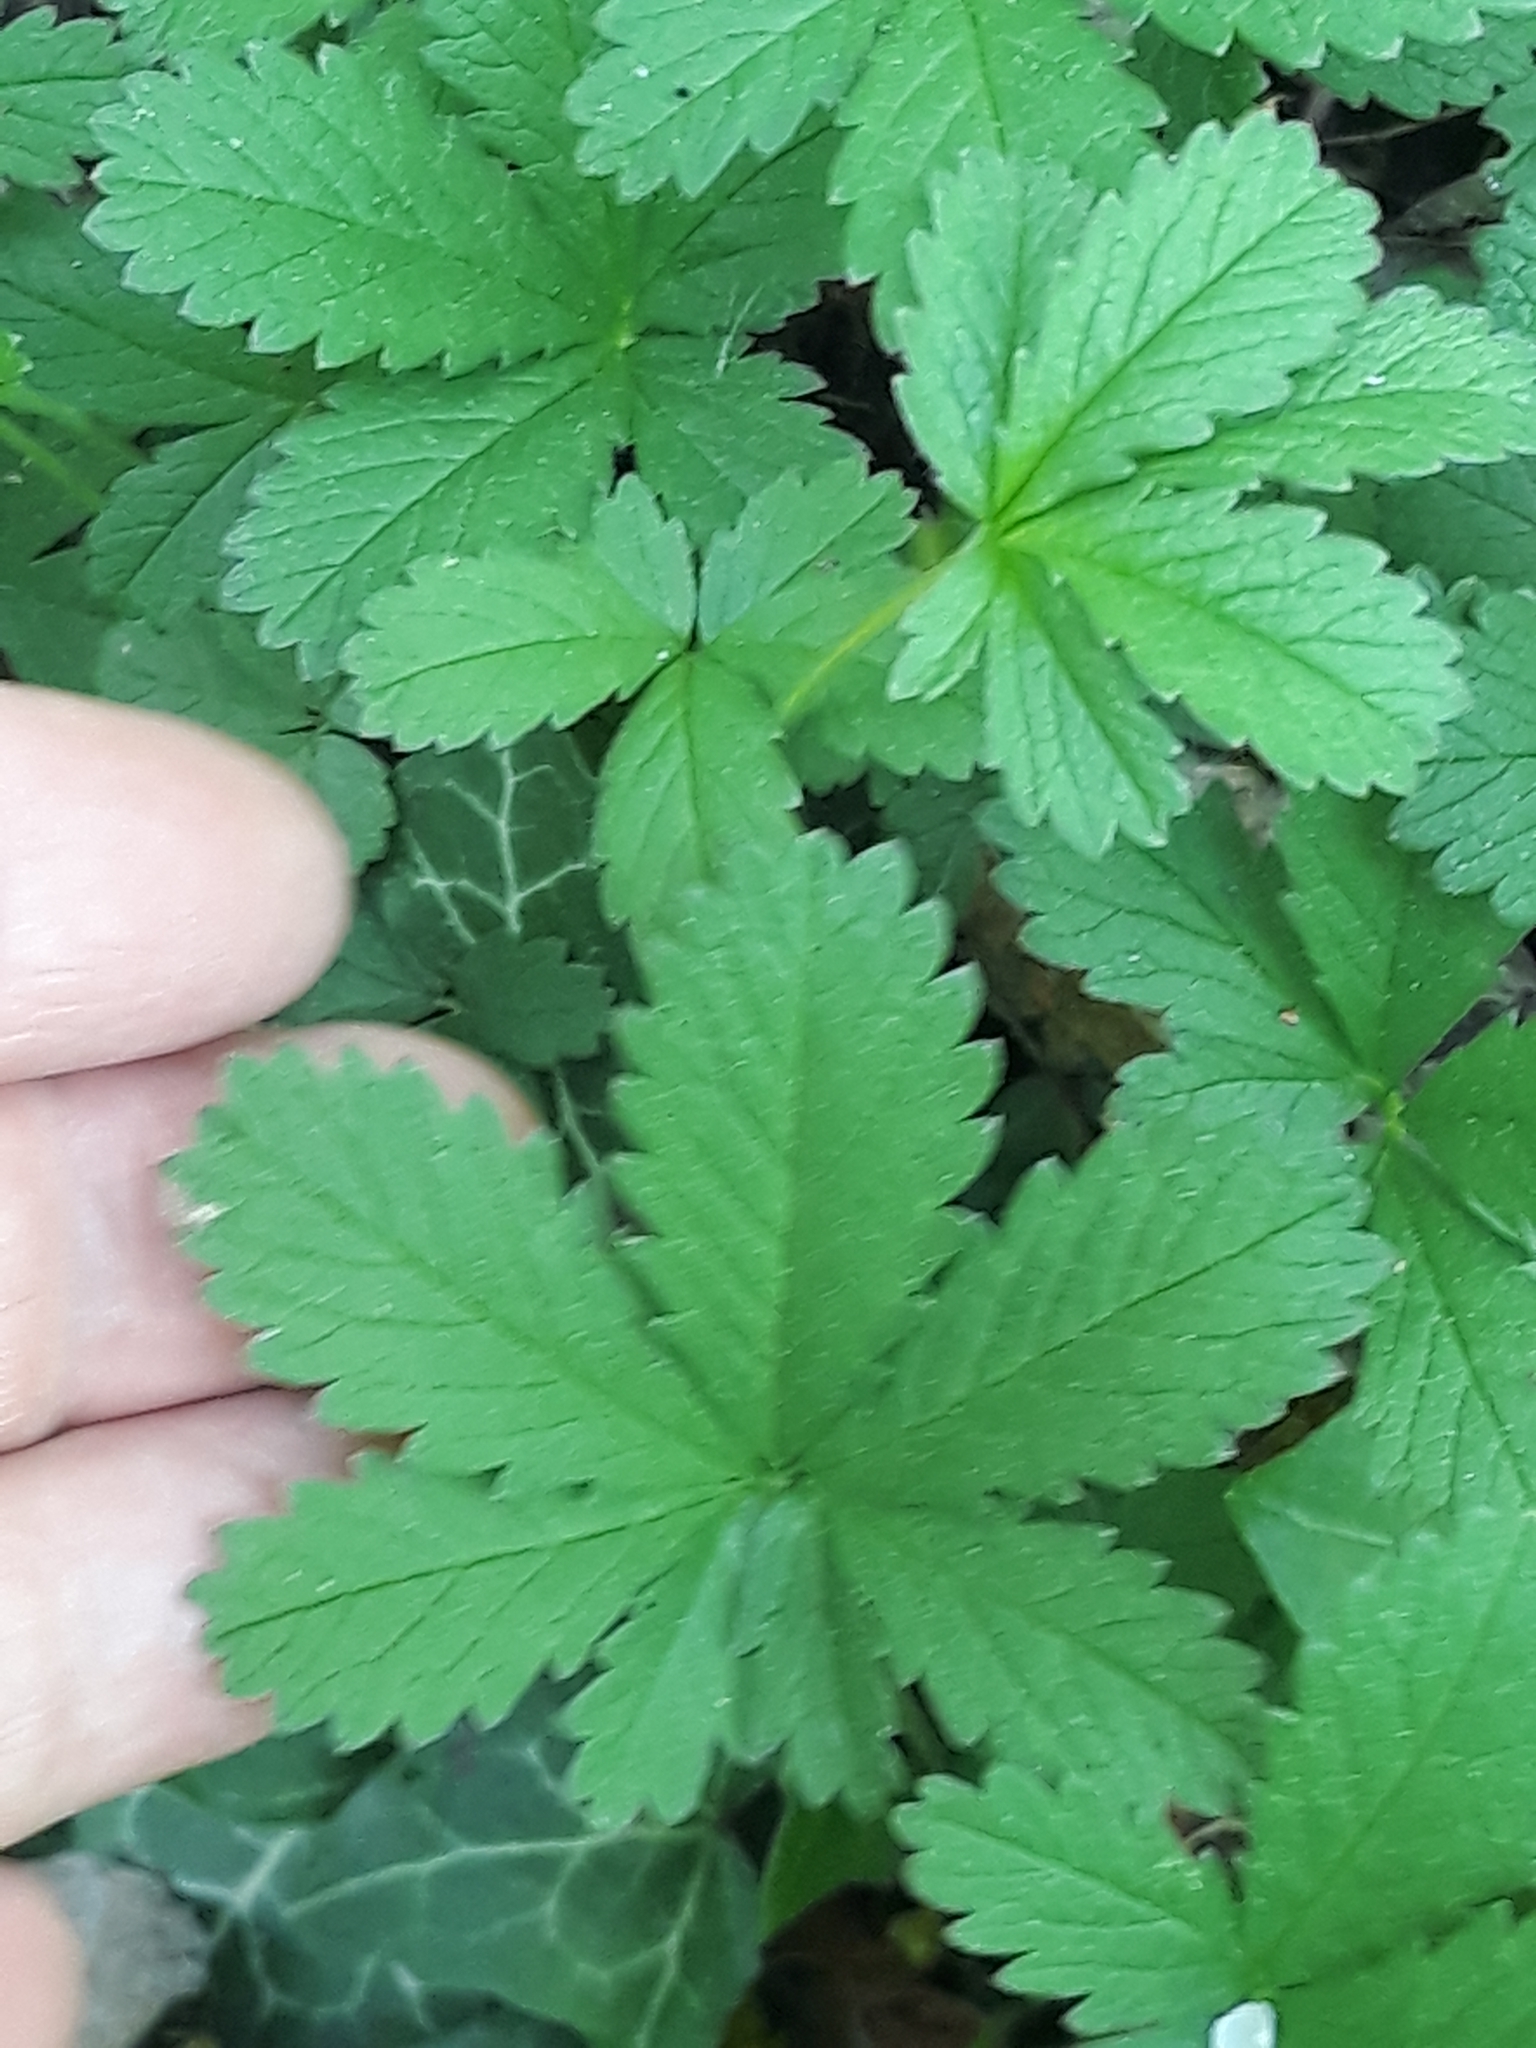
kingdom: Plantae
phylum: Tracheophyta
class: Magnoliopsida
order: Rosales
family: Rosaceae
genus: Potentilla
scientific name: Potentilla reptans
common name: Creeping cinquefoil
